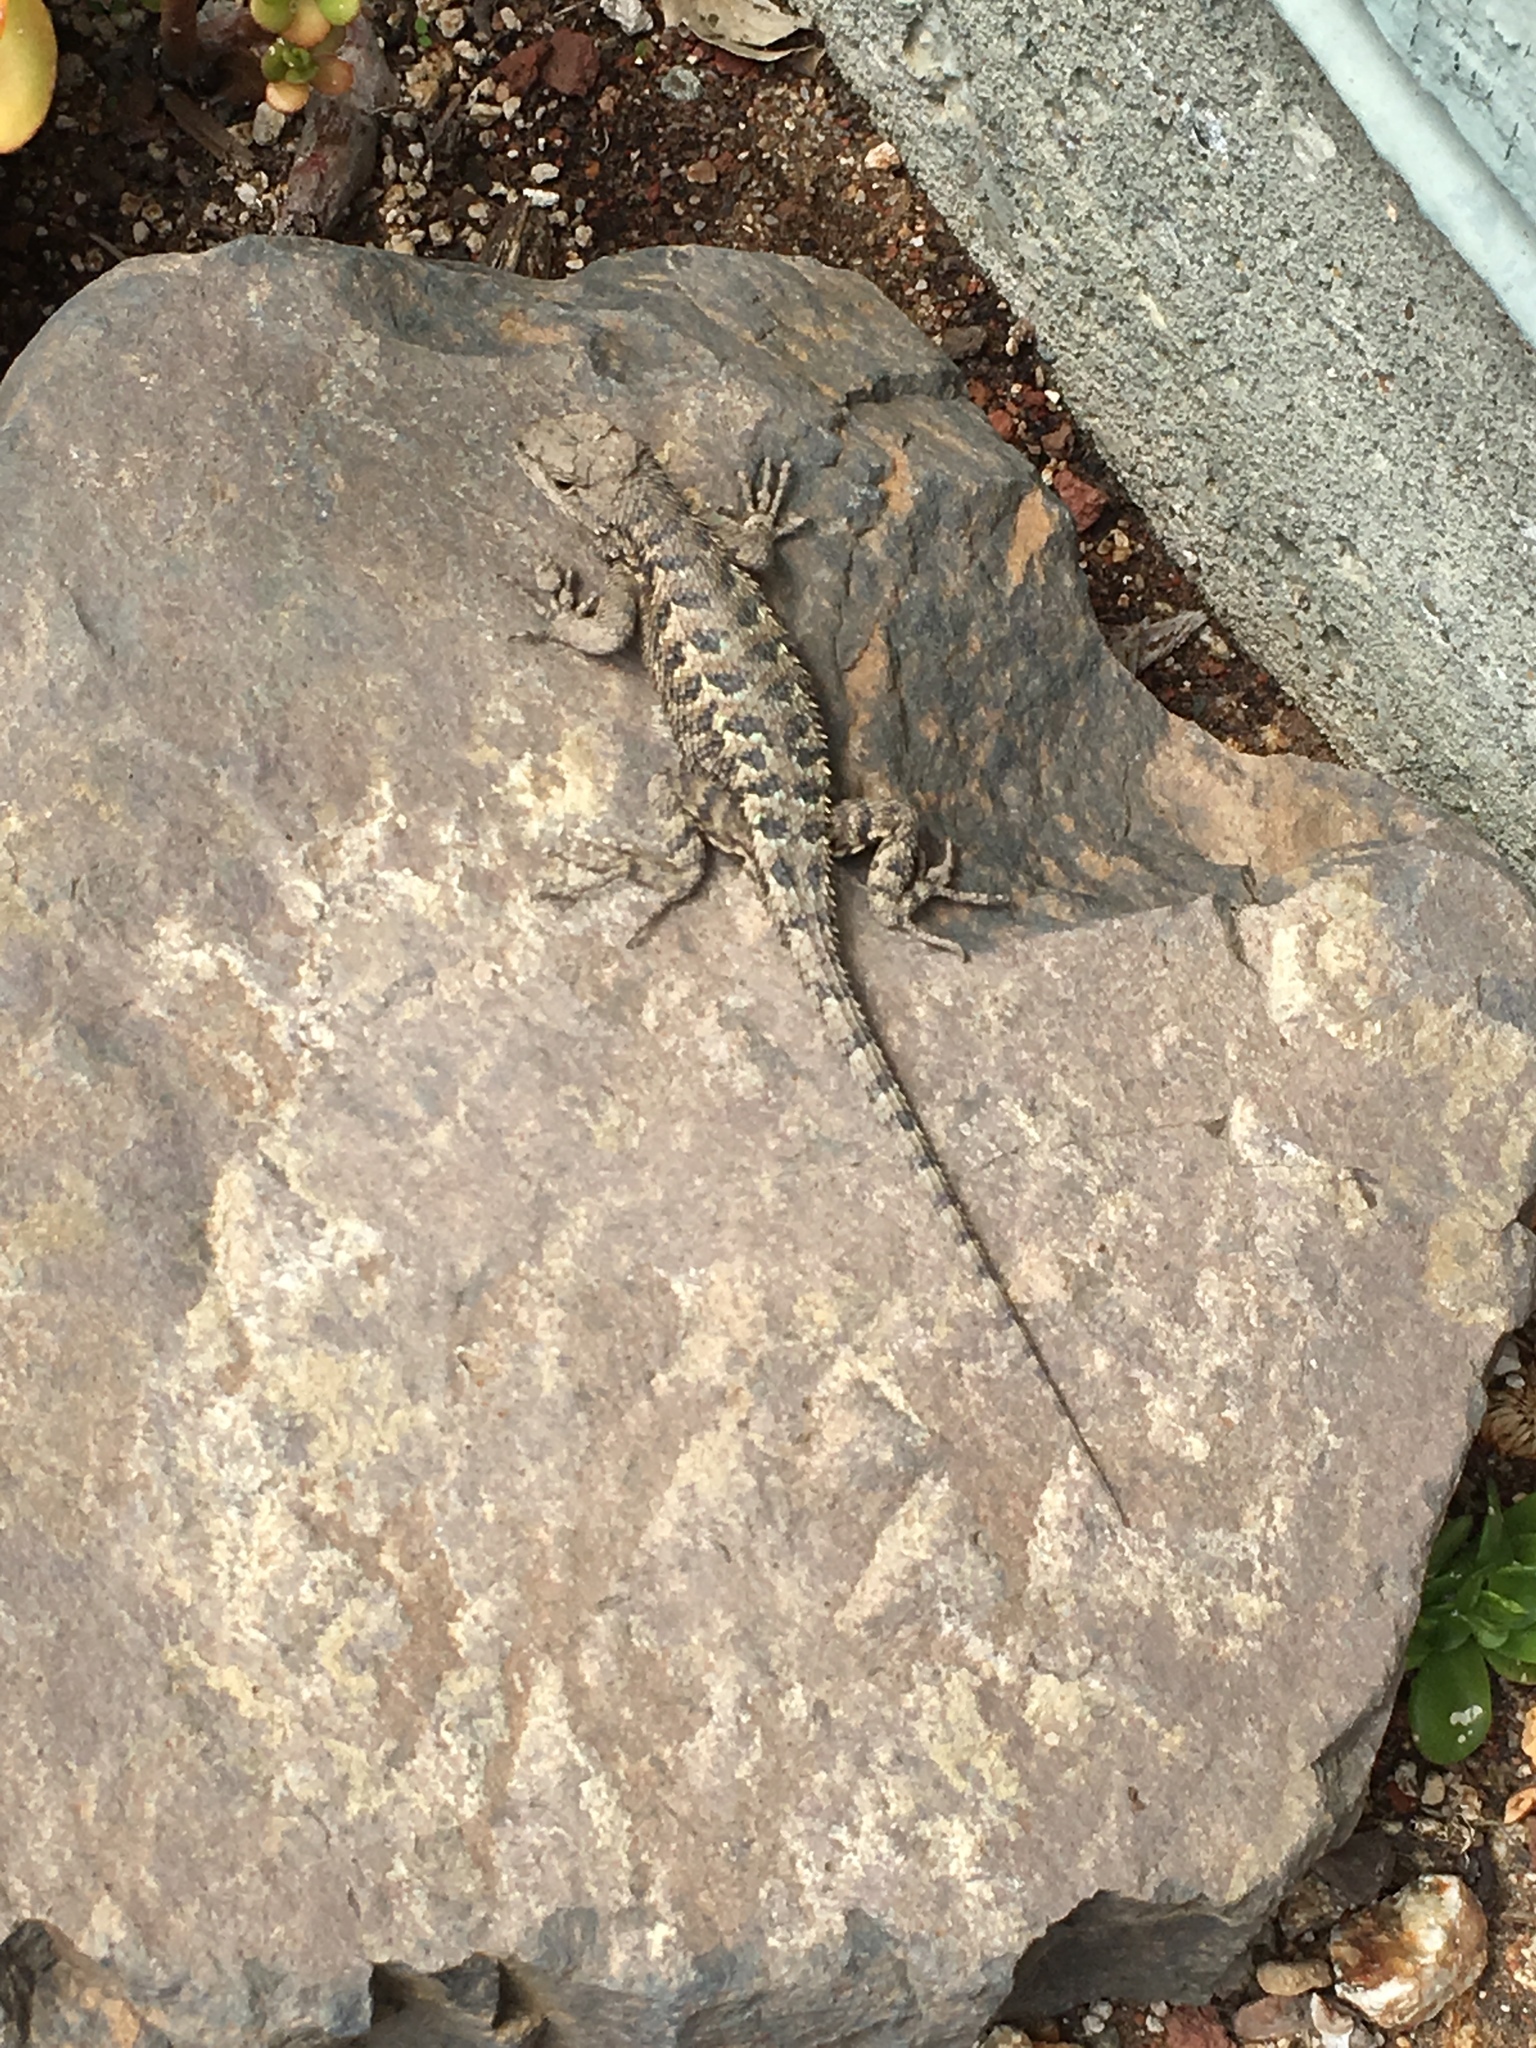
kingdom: Animalia
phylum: Chordata
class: Squamata
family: Phrynosomatidae
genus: Sceloporus
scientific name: Sceloporus occidentalis
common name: Western fence lizard
